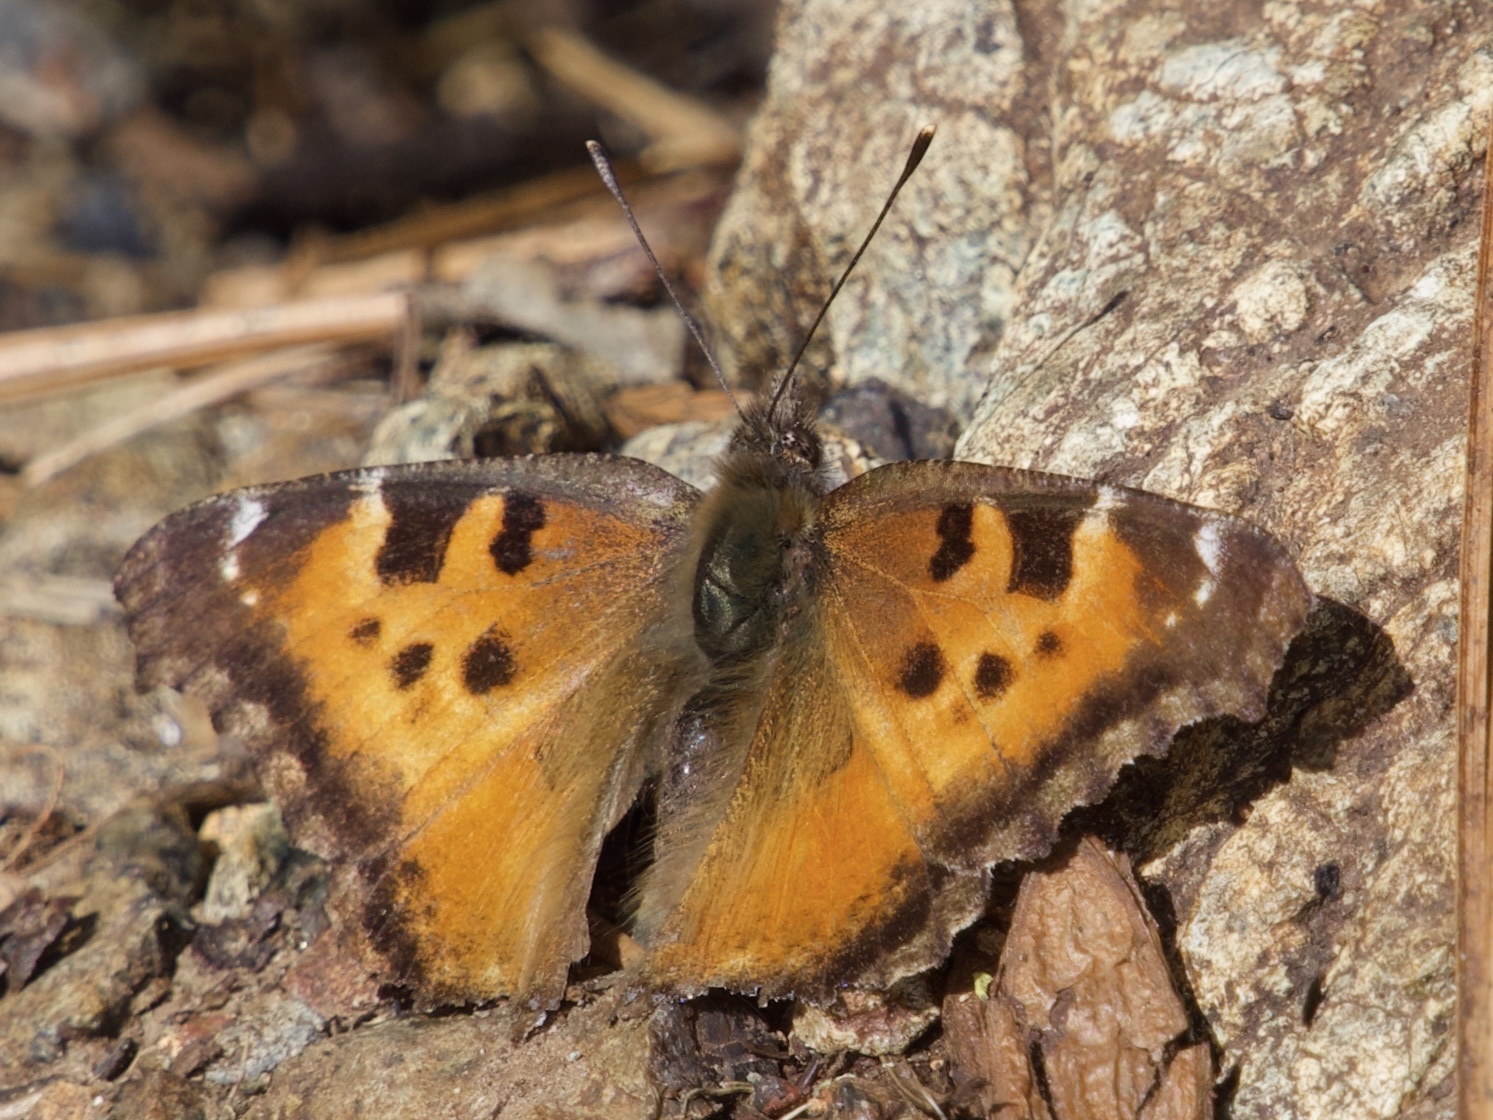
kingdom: Animalia
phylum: Arthropoda
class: Insecta
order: Lepidoptera
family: Nymphalidae
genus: Nymphalis
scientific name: Nymphalis californica
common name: California tortoiseshell
